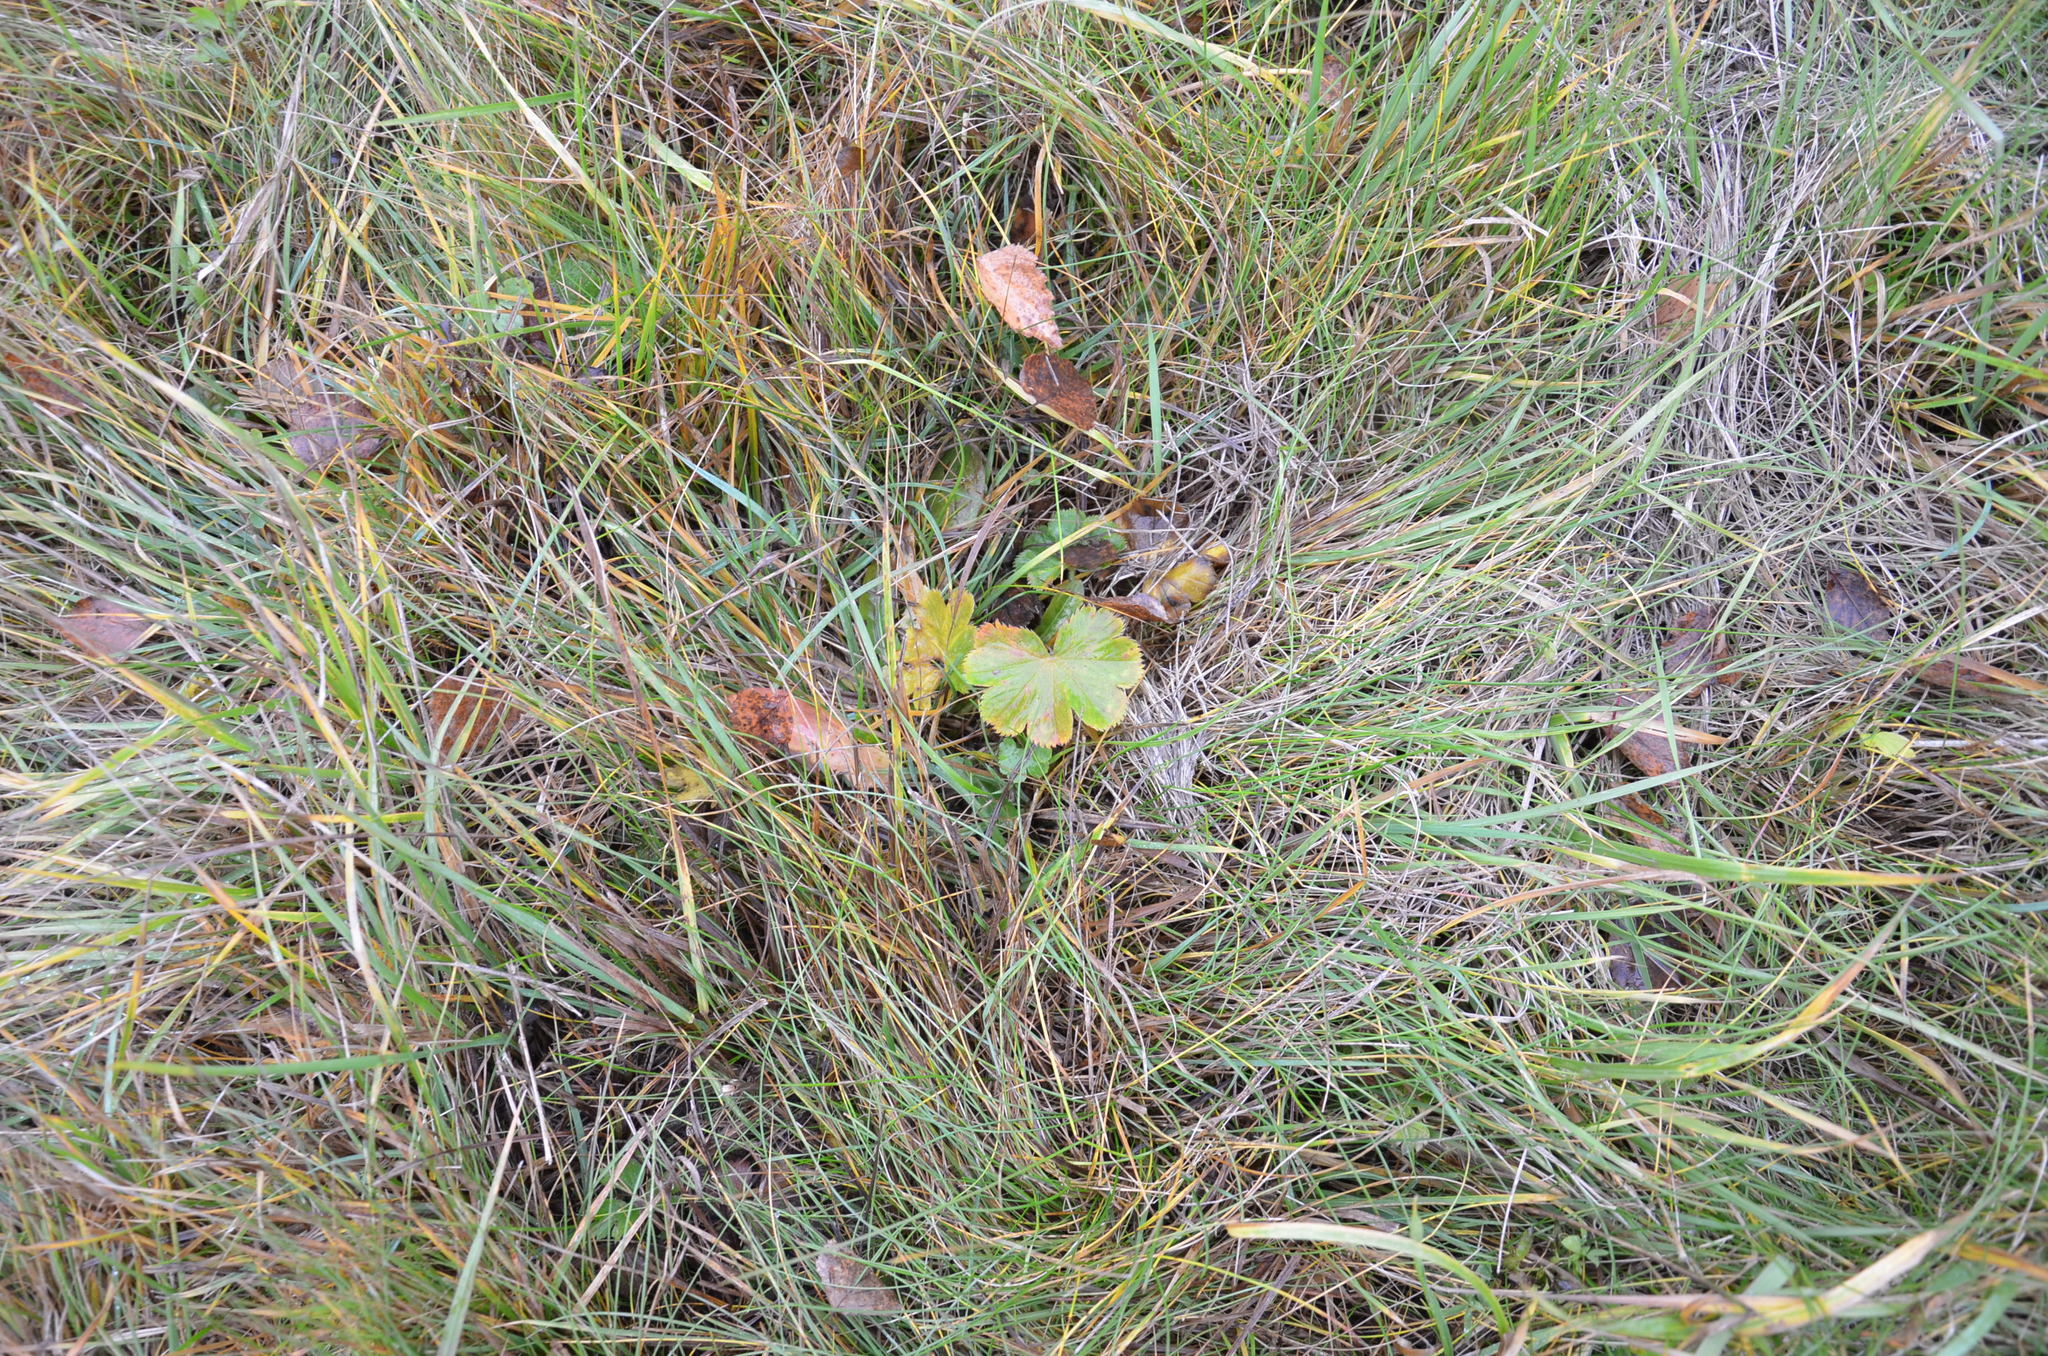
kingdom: Plantae
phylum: Tracheophyta
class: Magnoliopsida
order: Rosales
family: Rosaceae
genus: Alchemilla
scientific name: Alchemilla
